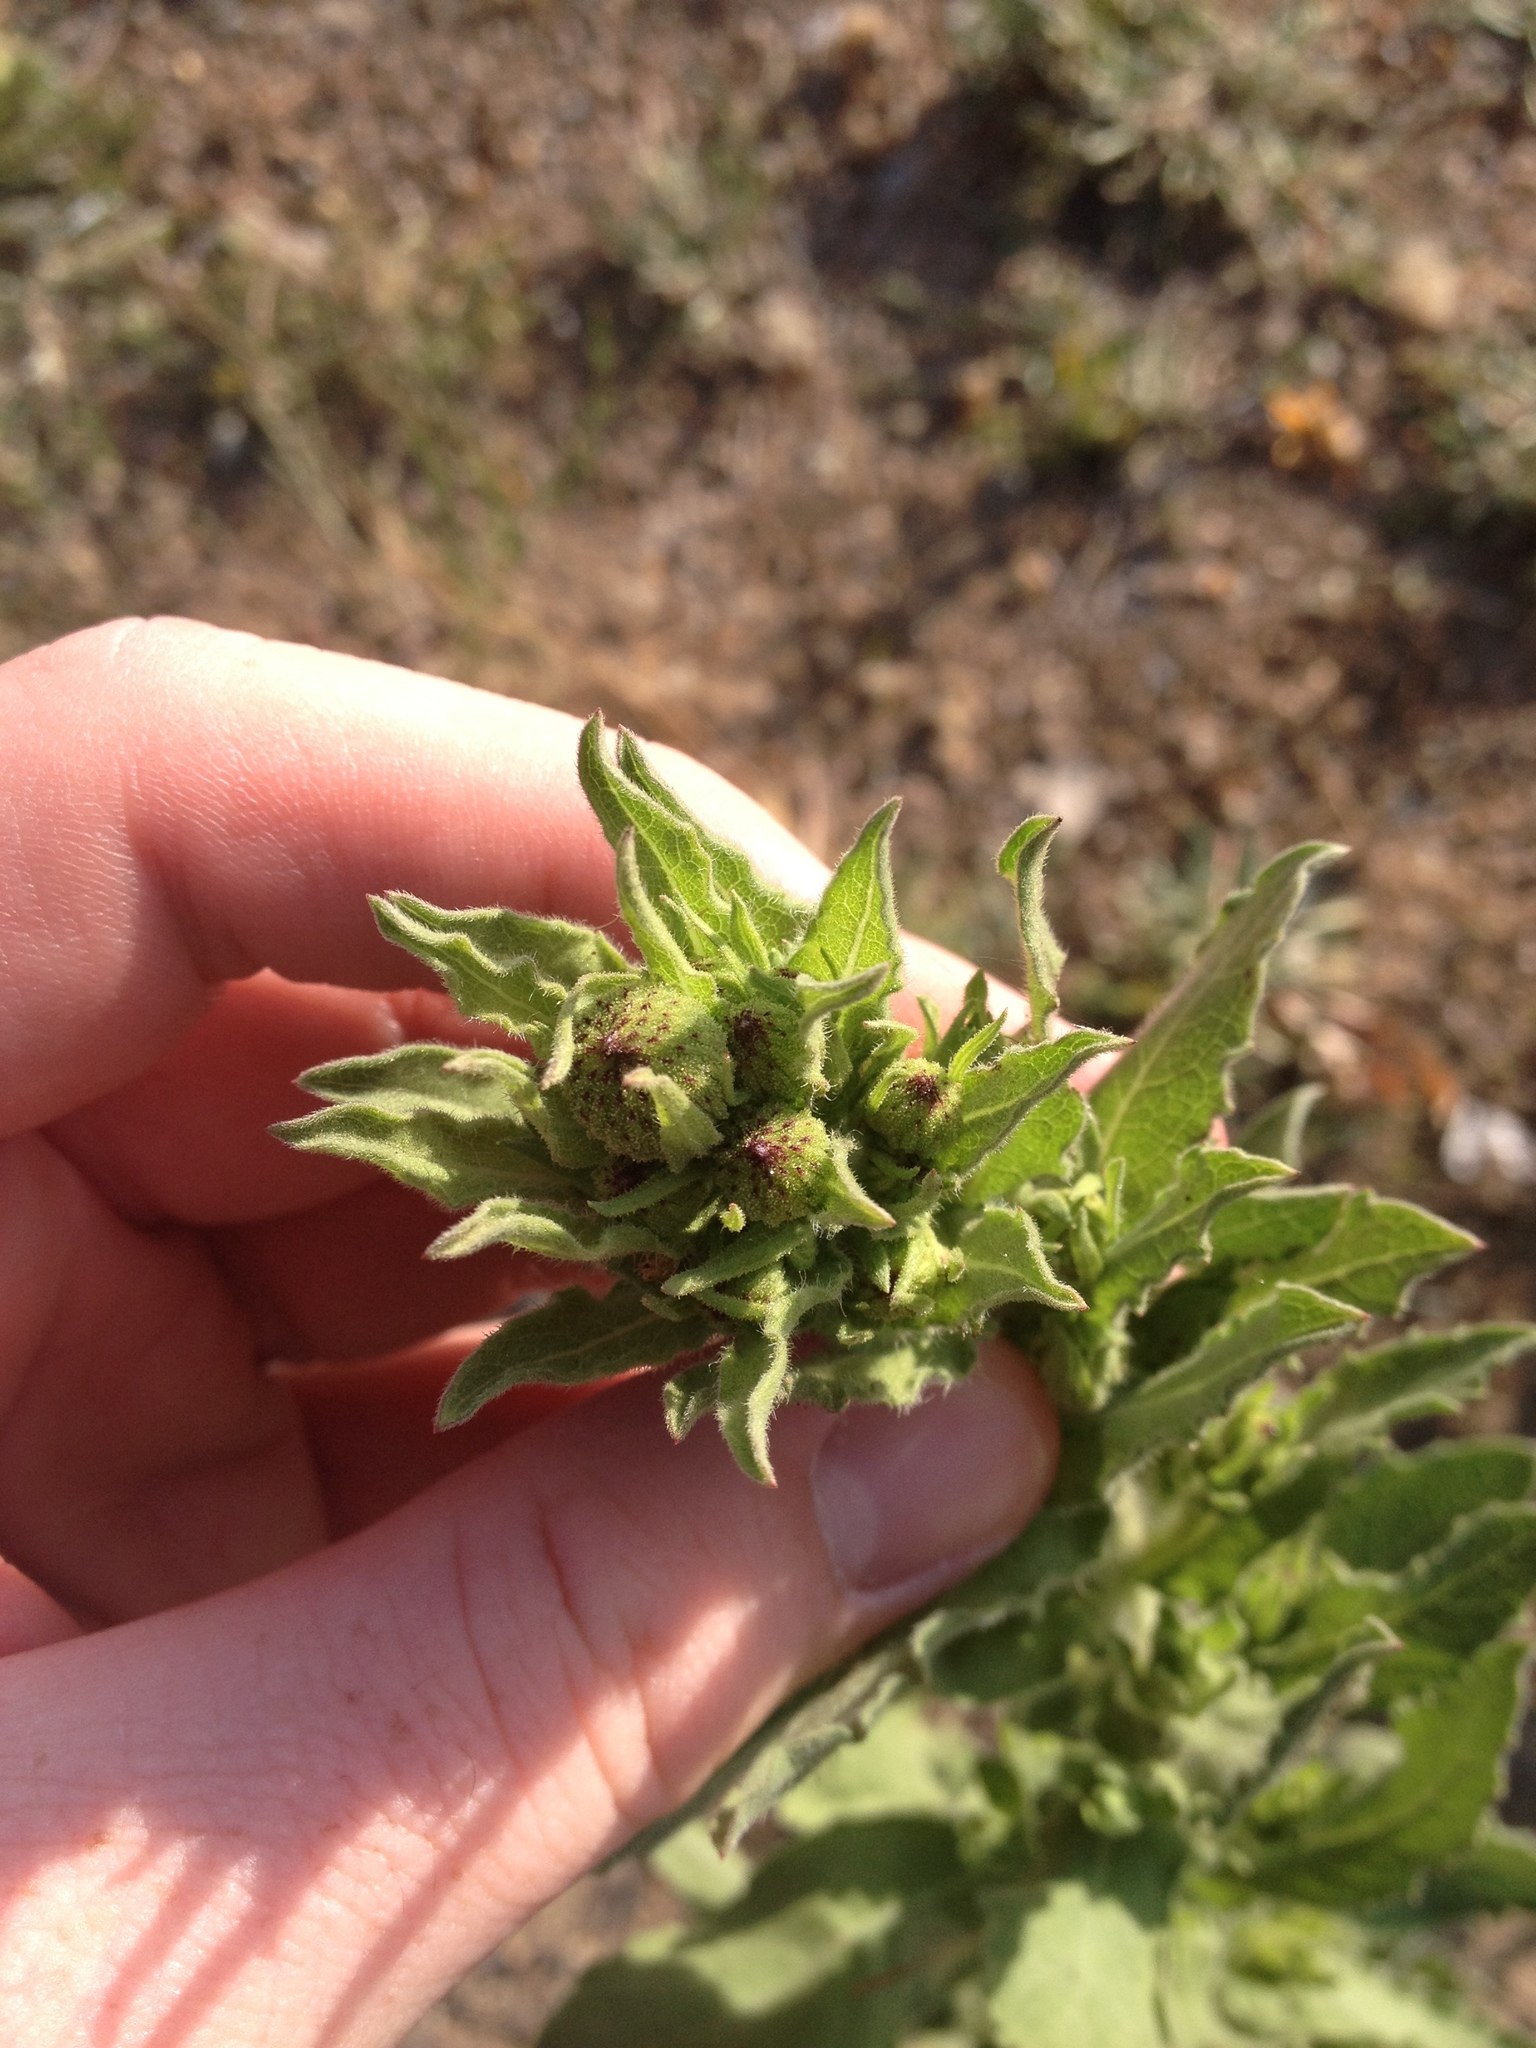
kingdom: Plantae
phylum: Tracheophyta
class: Magnoliopsida
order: Asterales
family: Asteraceae
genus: Heterotheca
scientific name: Heterotheca grandiflora
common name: Telegraphweed
